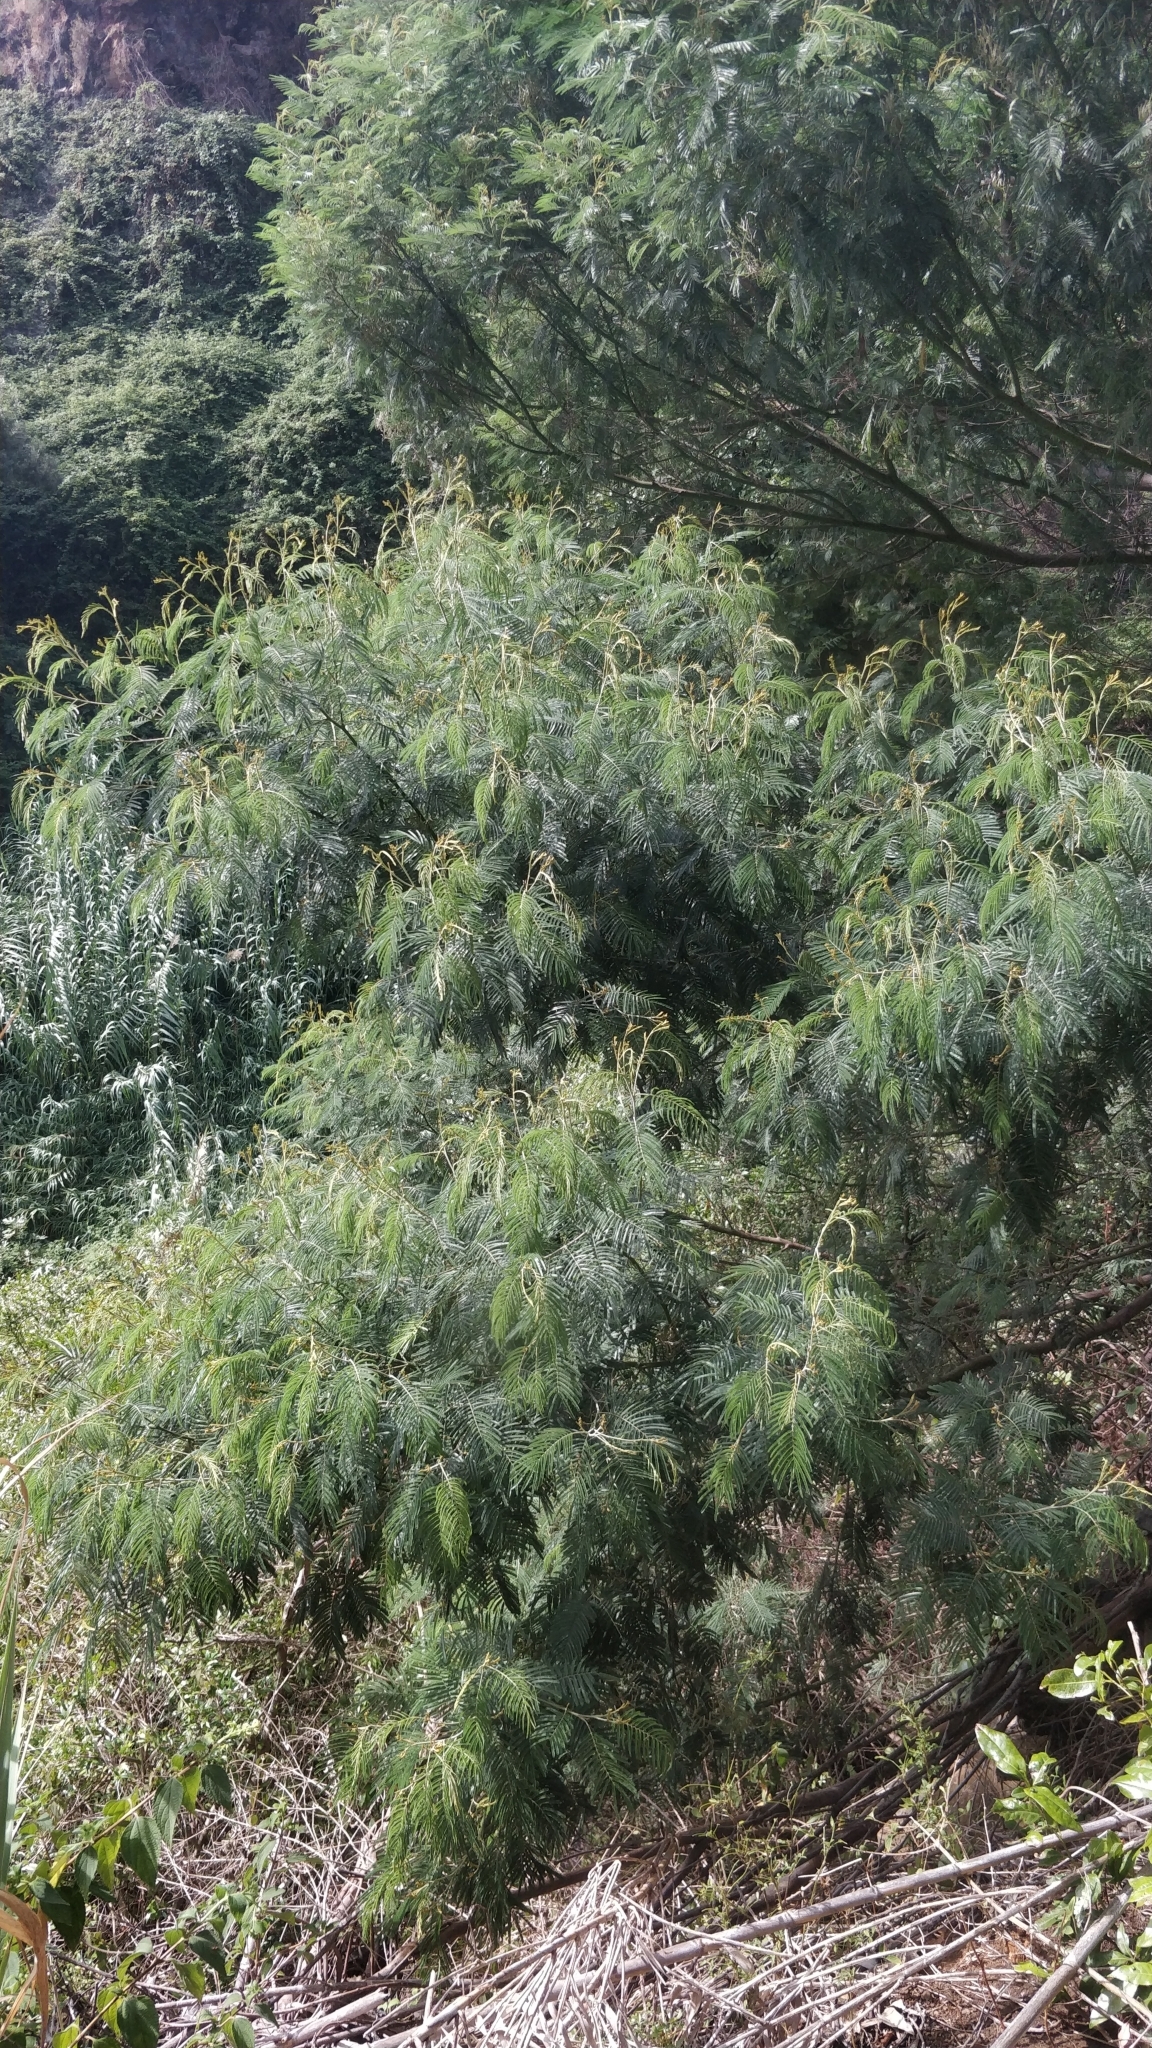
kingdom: Plantae
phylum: Tracheophyta
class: Magnoliopsida
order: Fabales
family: Fabaceae
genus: Acacia
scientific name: Acacia mearnsii
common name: Black wattle
